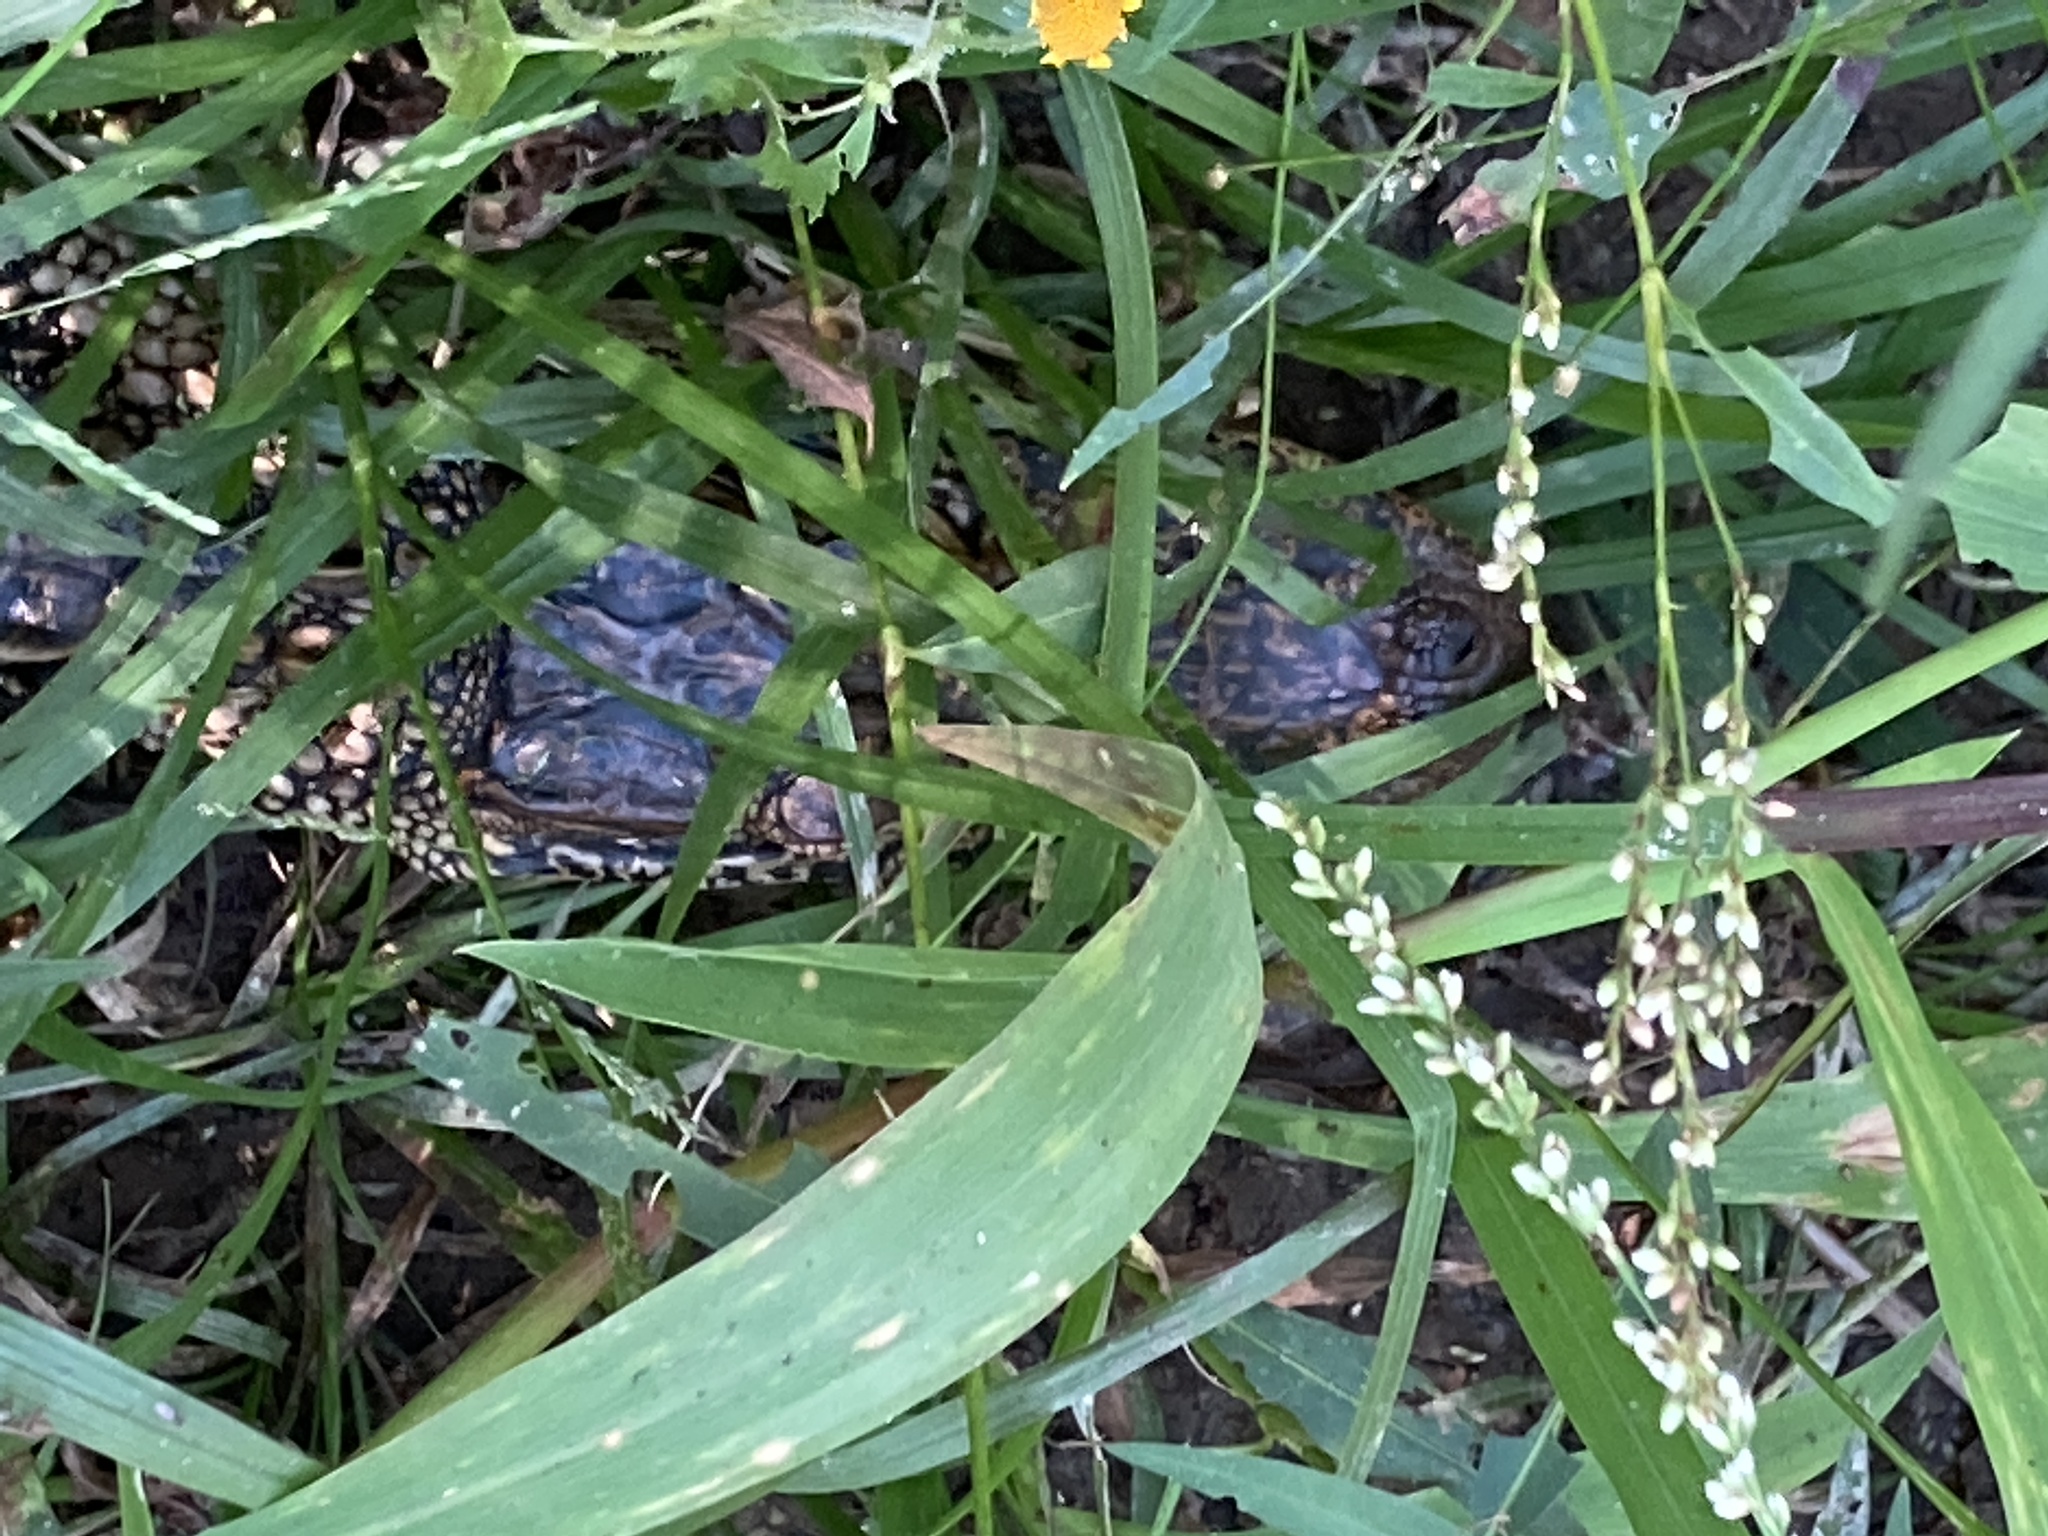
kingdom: Animalia
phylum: Chordata
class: Crocodylia
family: Alligatoridae
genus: Alligator
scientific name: Alligator mississippiensis
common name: American alligator
